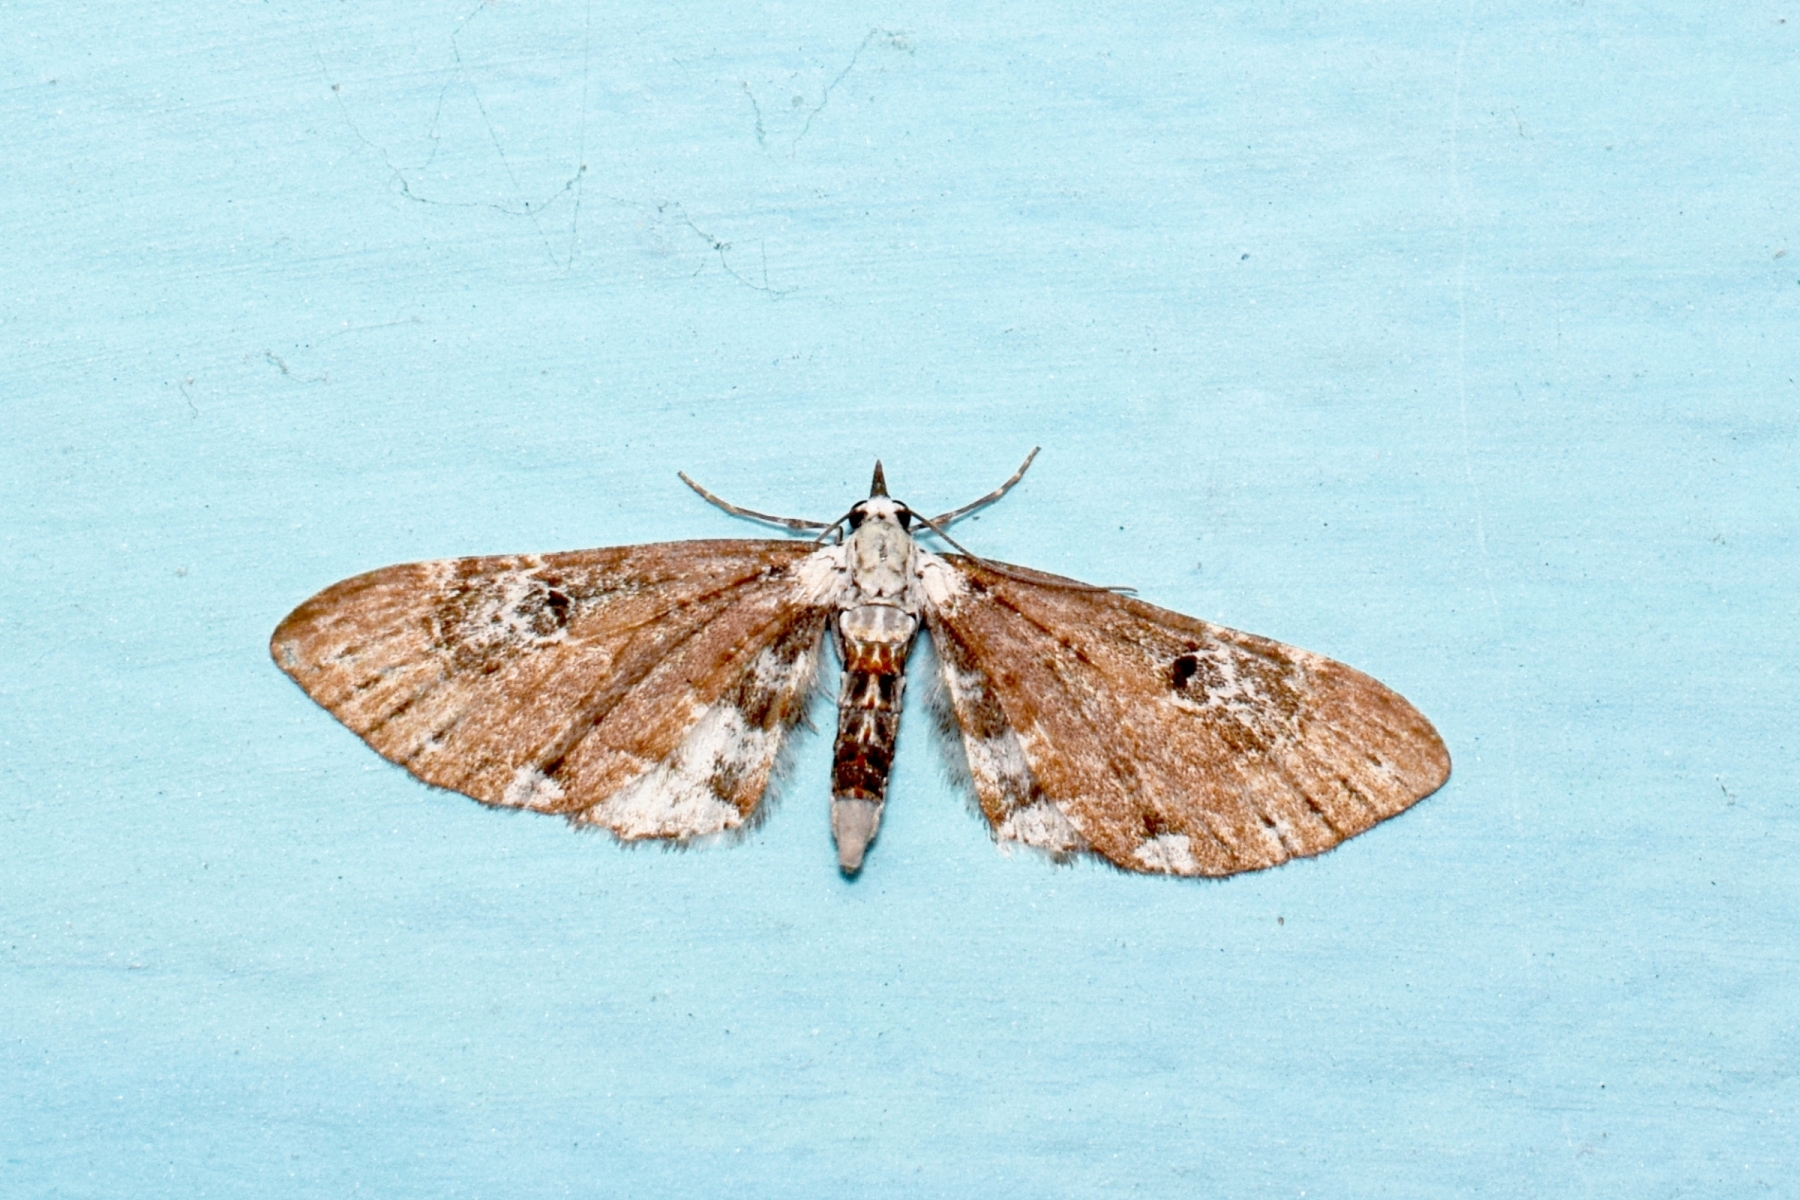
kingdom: Animalia
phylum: Arthropoda
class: Insecta
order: Lepidoptera
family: Geometridae
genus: Eupithecia
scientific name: Eupithecia albigutta
